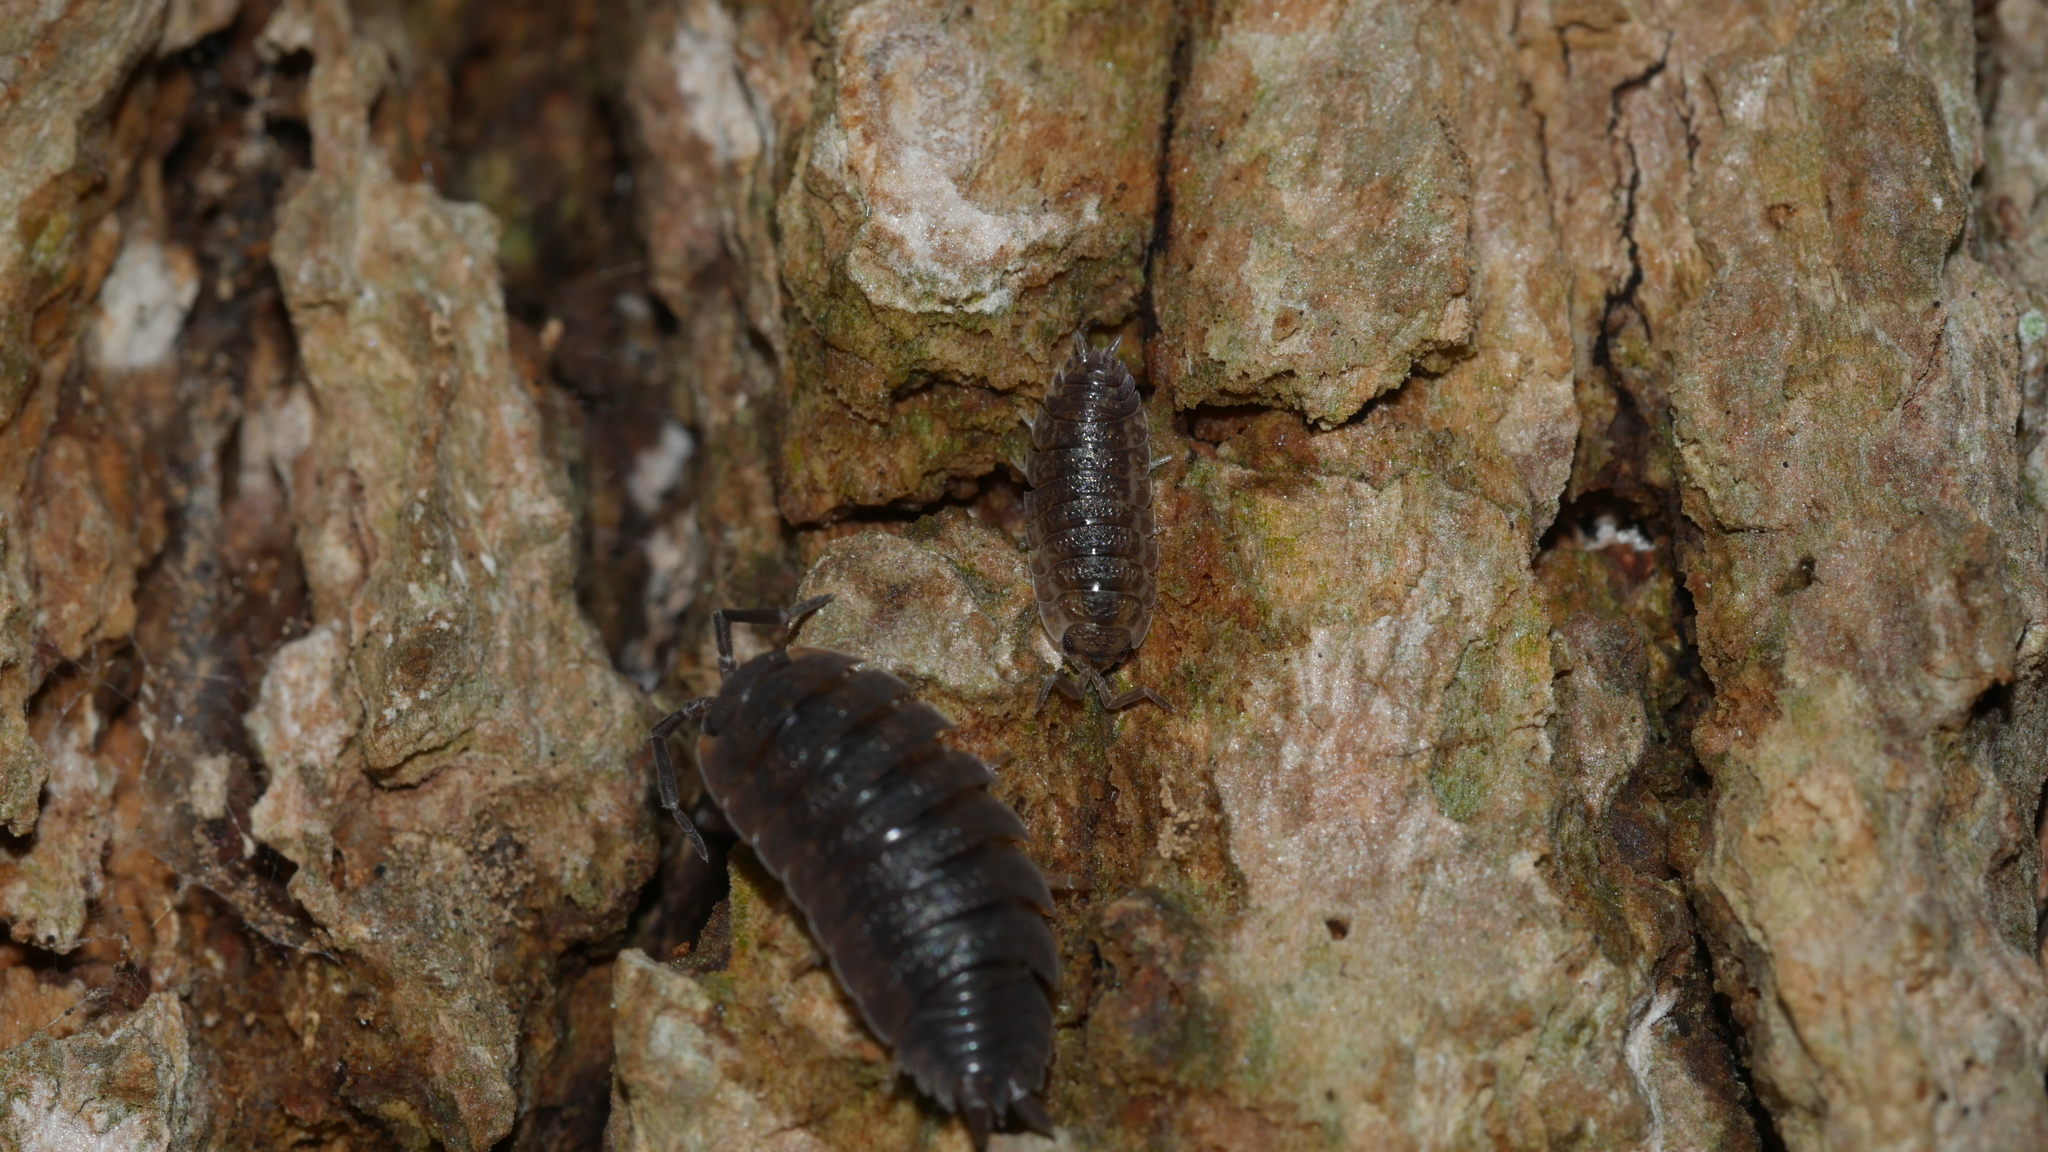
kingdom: Animalia
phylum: Arthropoda
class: Malacostraca
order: Isopoda
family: Porcellionidae
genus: Porcellio
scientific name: Porcellio scaber
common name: Common rough woodlouse
